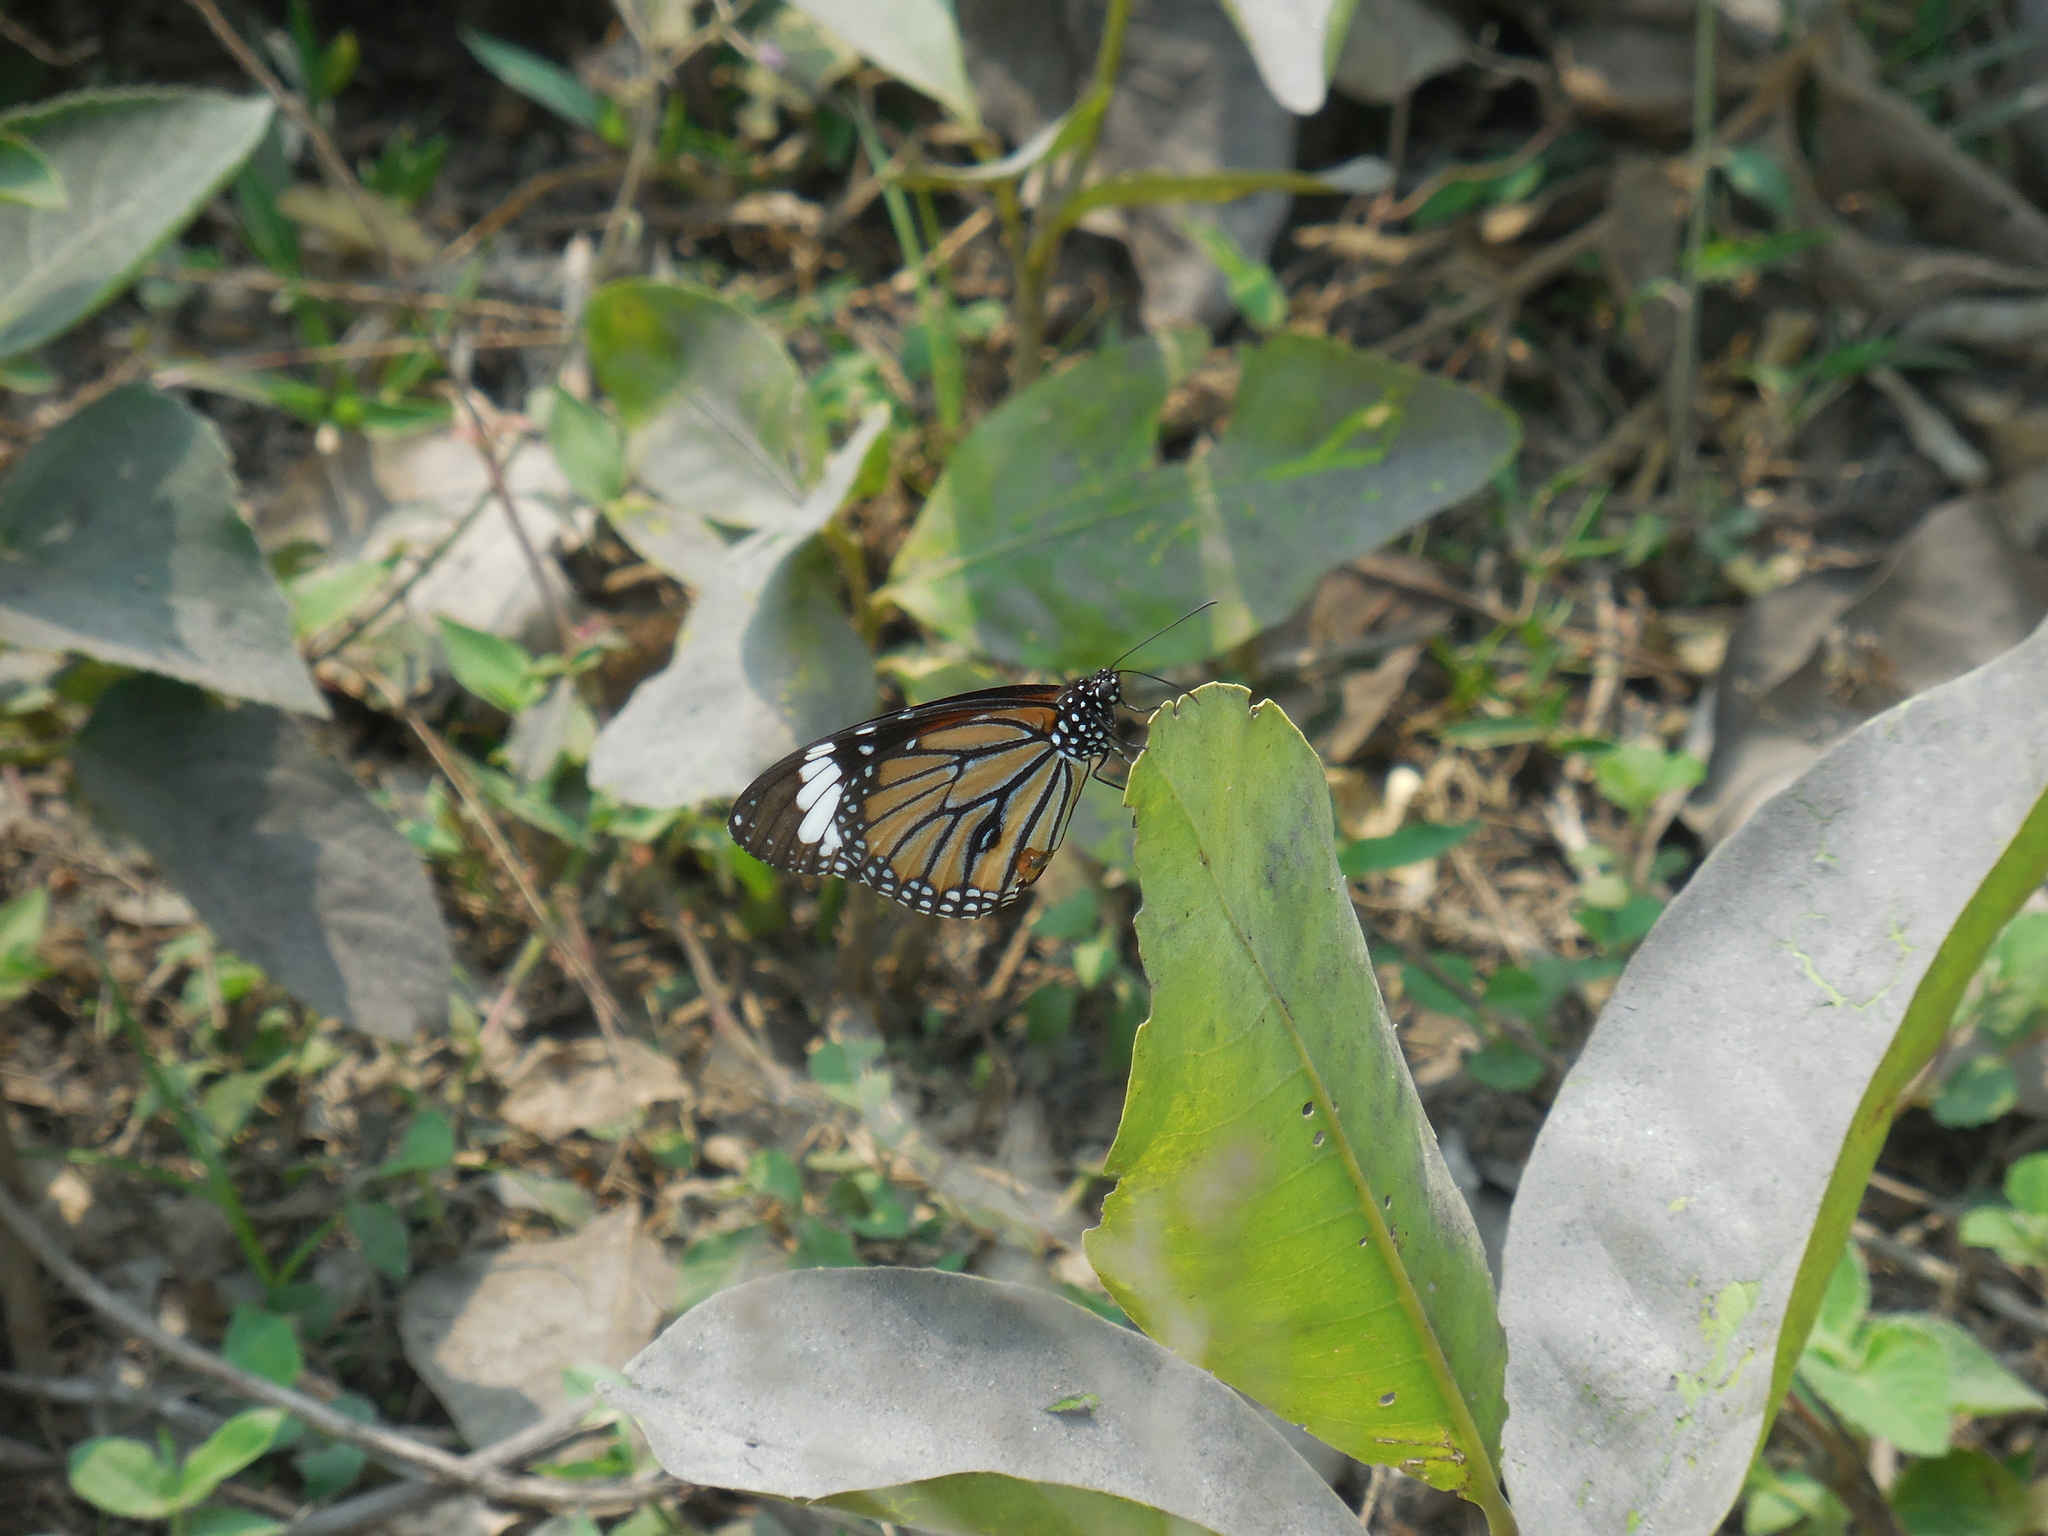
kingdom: Animalia
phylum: Arthropoda
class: Insecta
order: Lepidoptera
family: Nymphalidae
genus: Danaus
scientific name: Danaus genutia
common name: Common tiger butterfly
